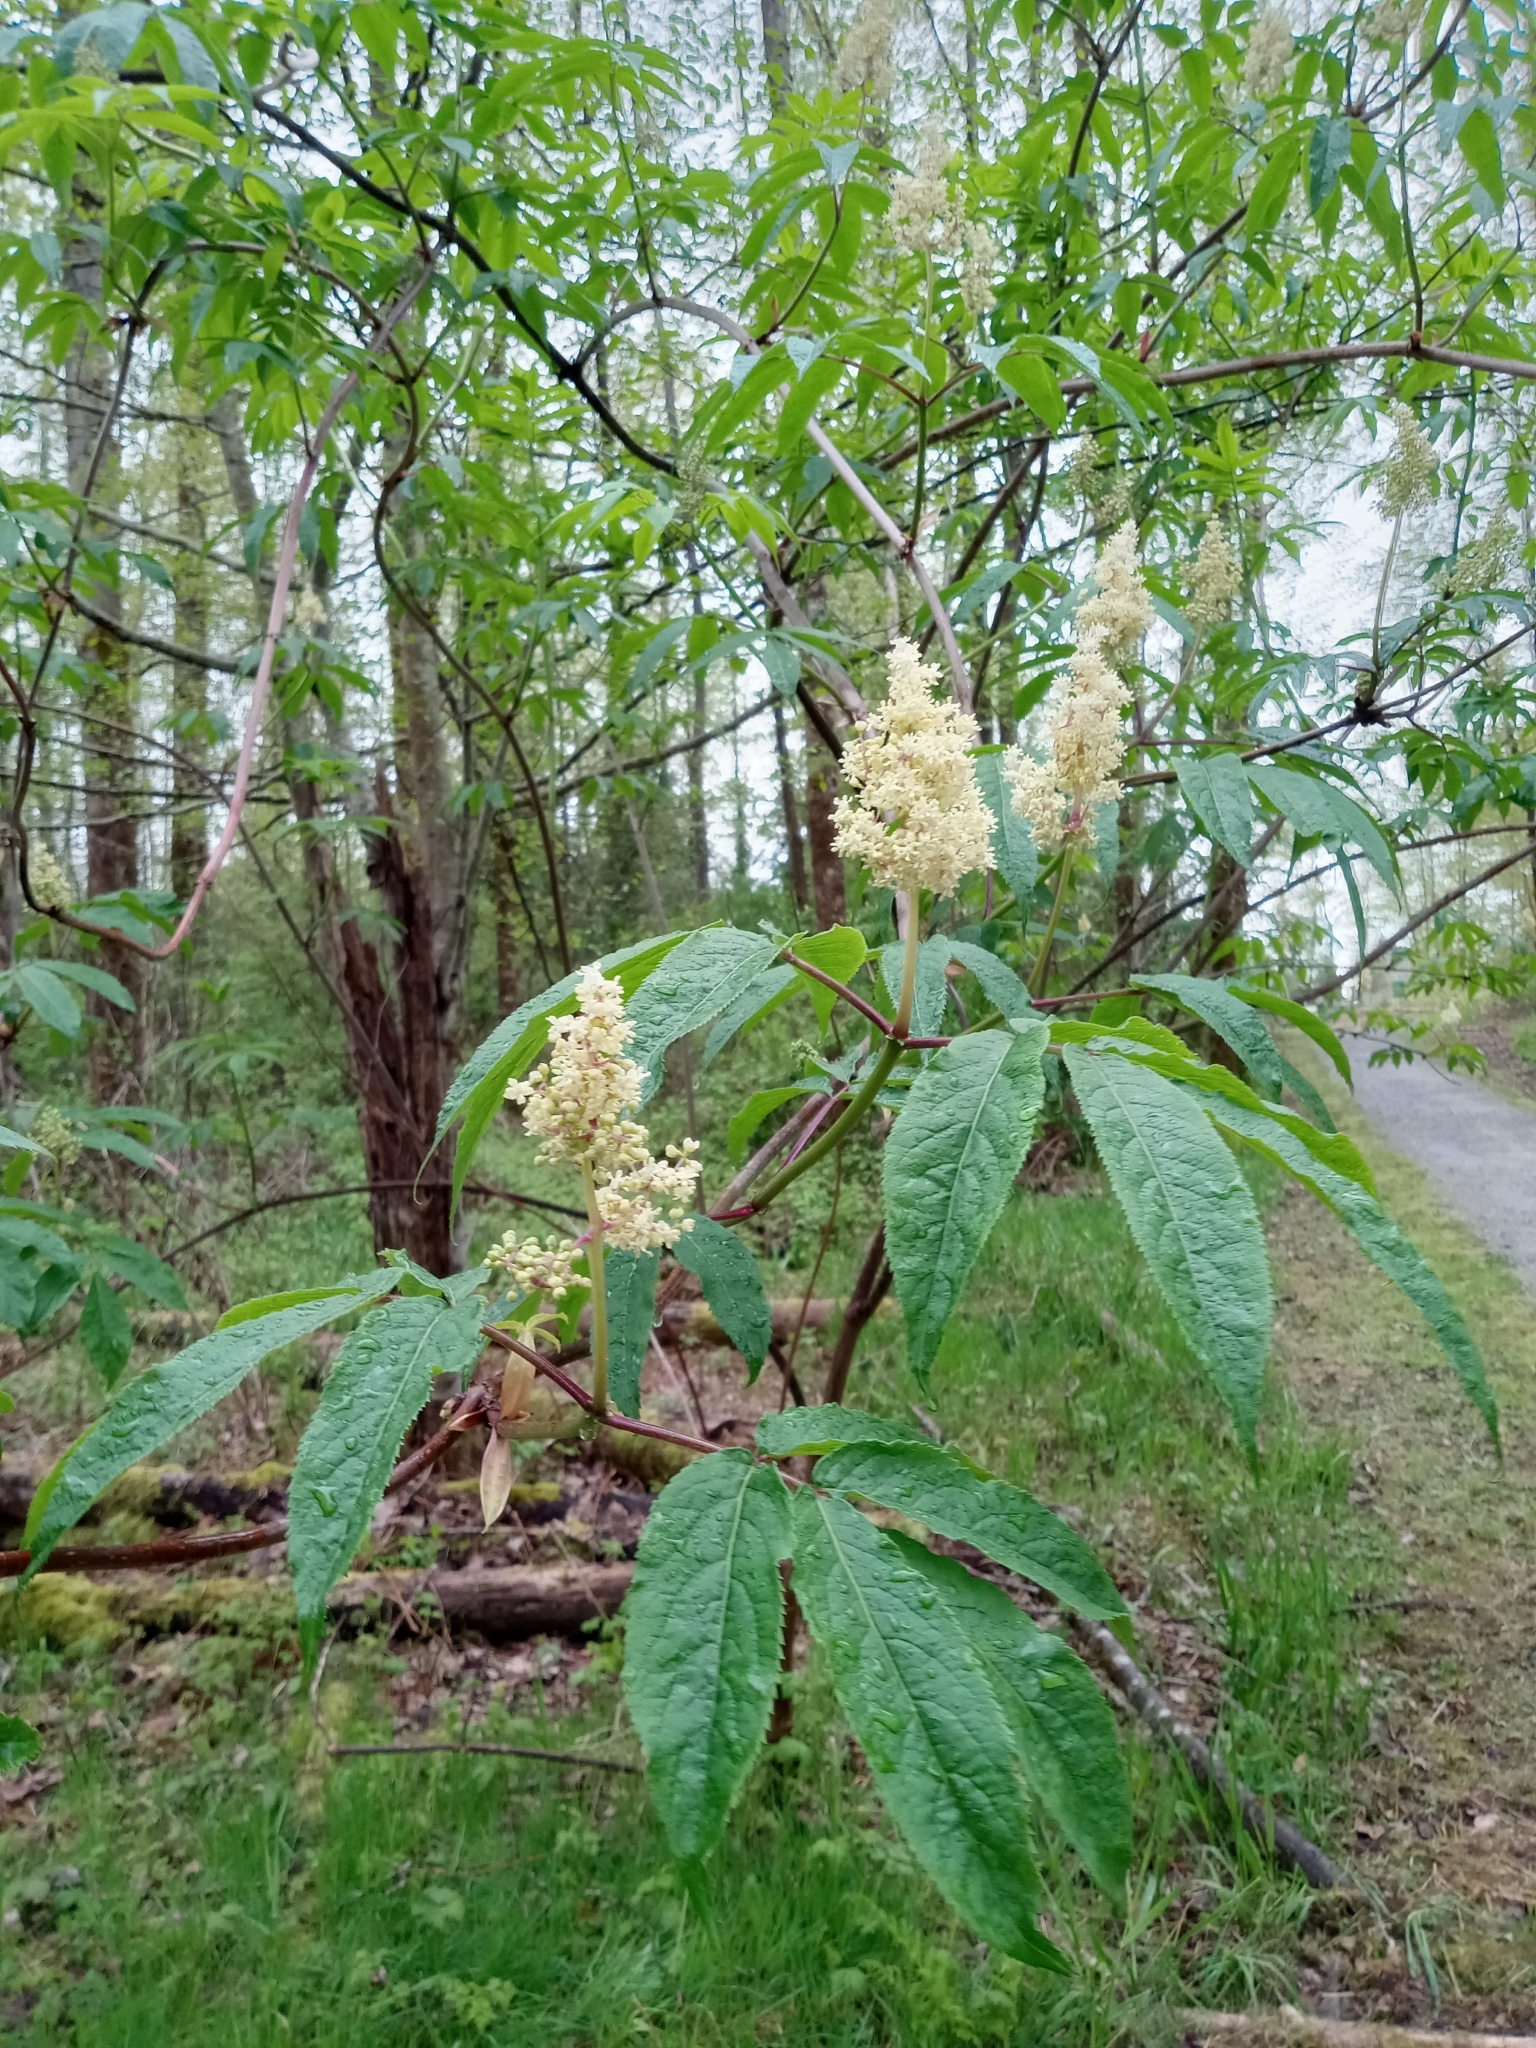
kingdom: Plantae
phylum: Tracheophyta
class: Magnoliopsida
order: Dipsacales
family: Viburnaceae
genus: Sambucus
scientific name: Sambucus racemosa
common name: Red-berried elder
